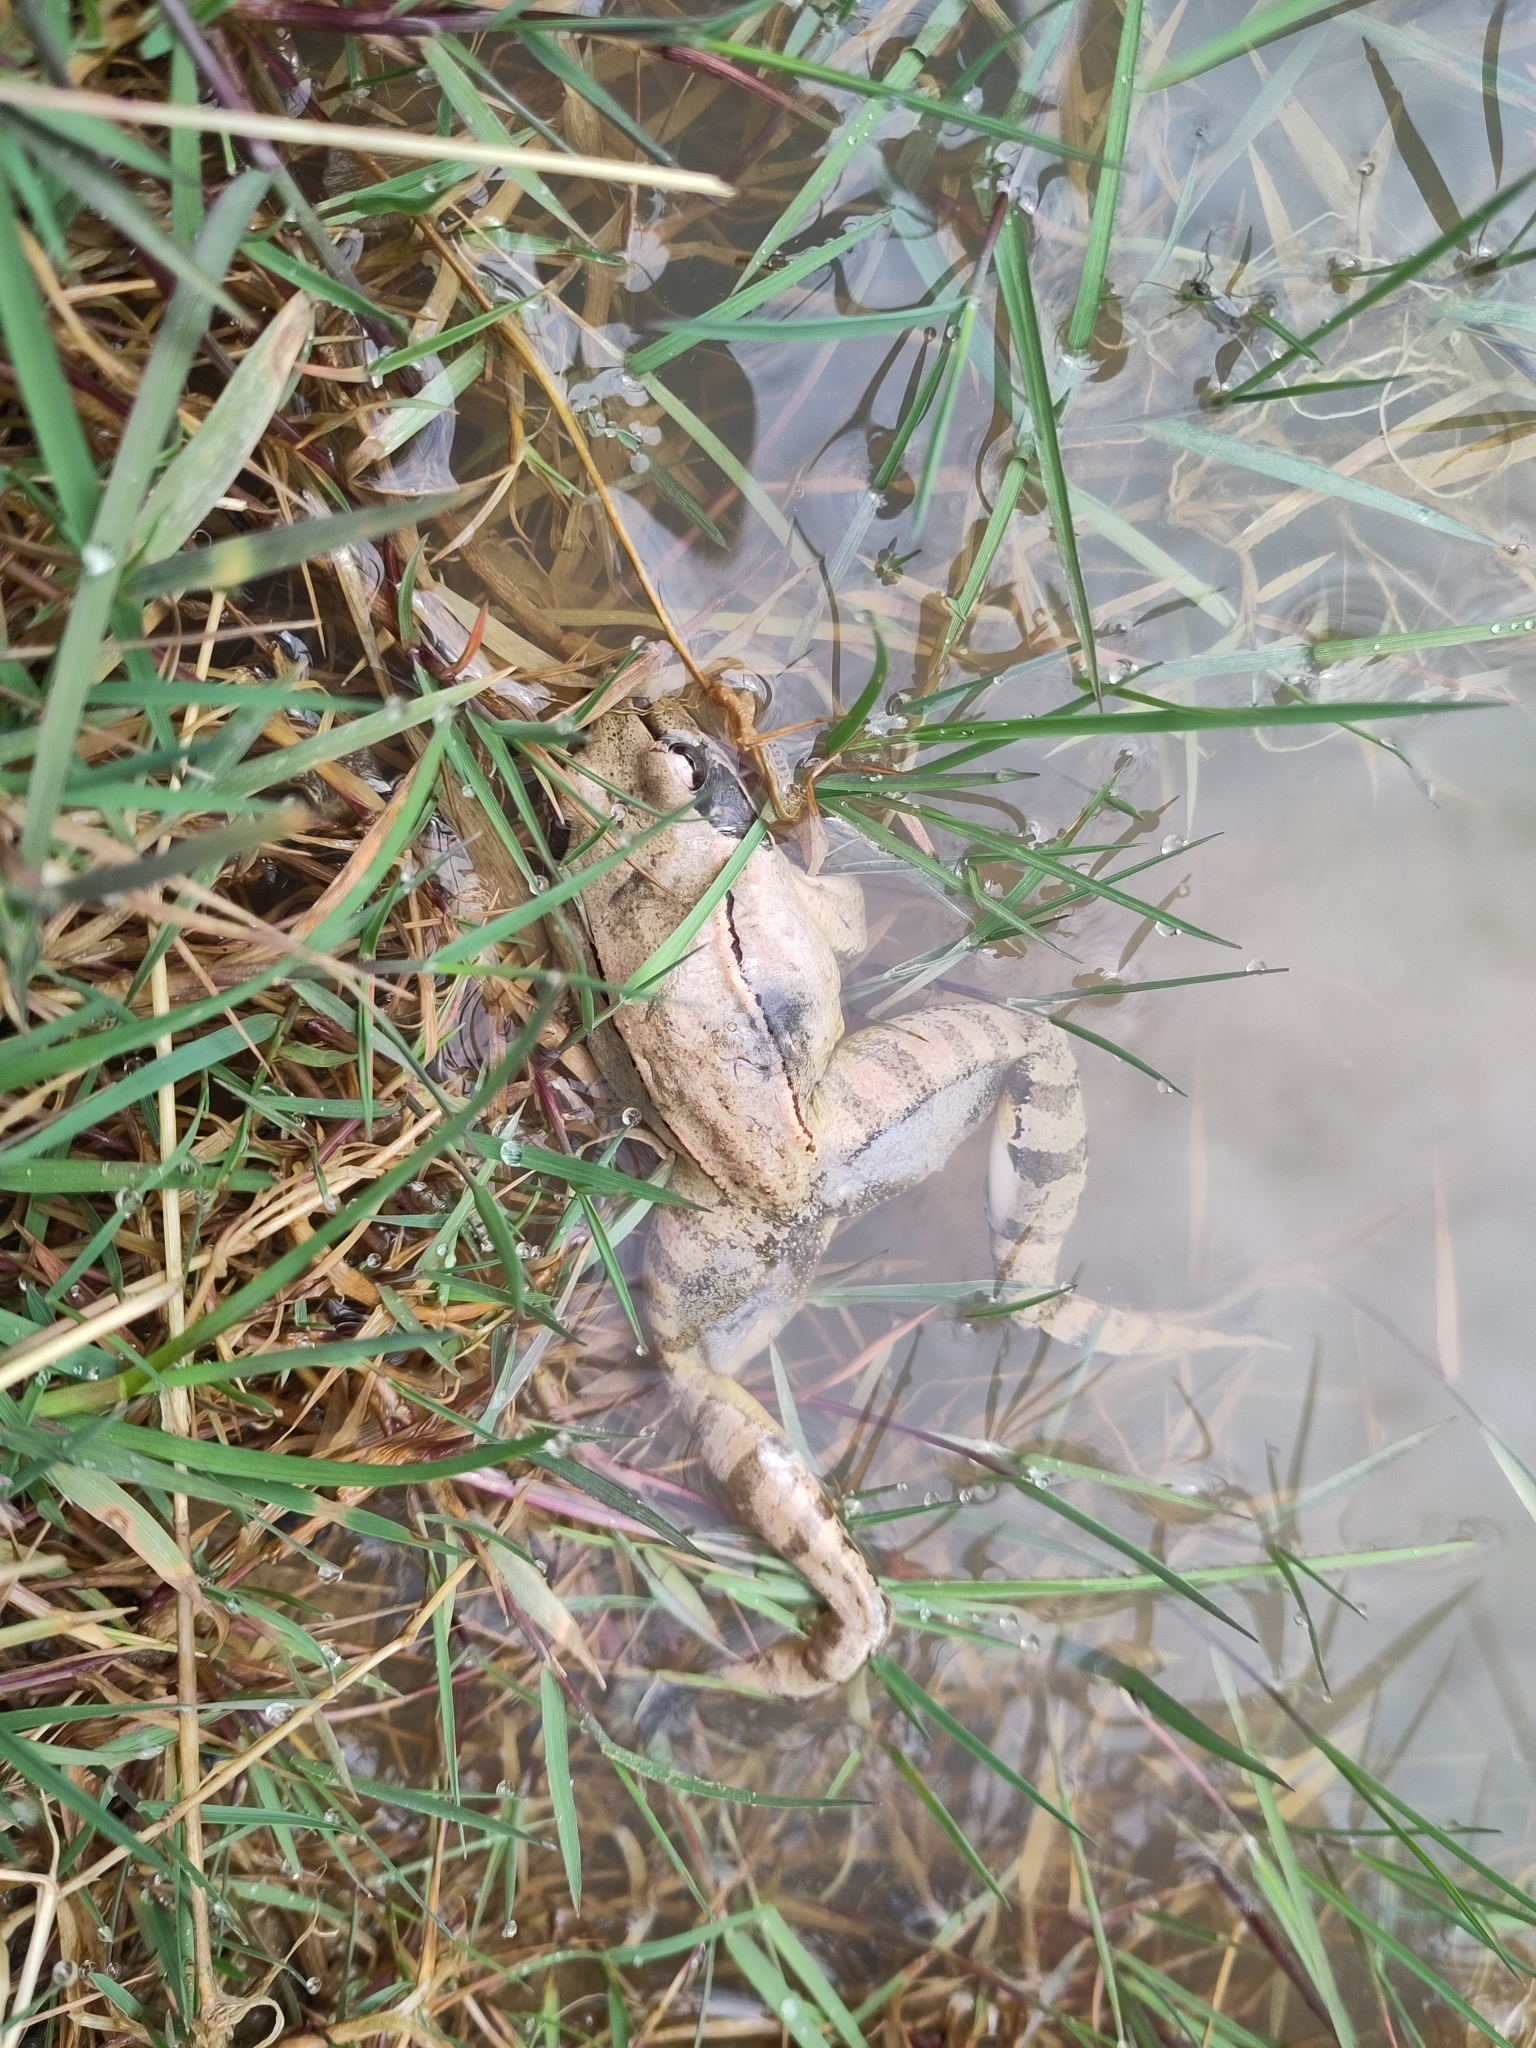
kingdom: Animalia
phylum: Chordata
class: Amphibia
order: Anura
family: Ranidae
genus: Rana
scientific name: Rana dalmatina
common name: Agile frog
